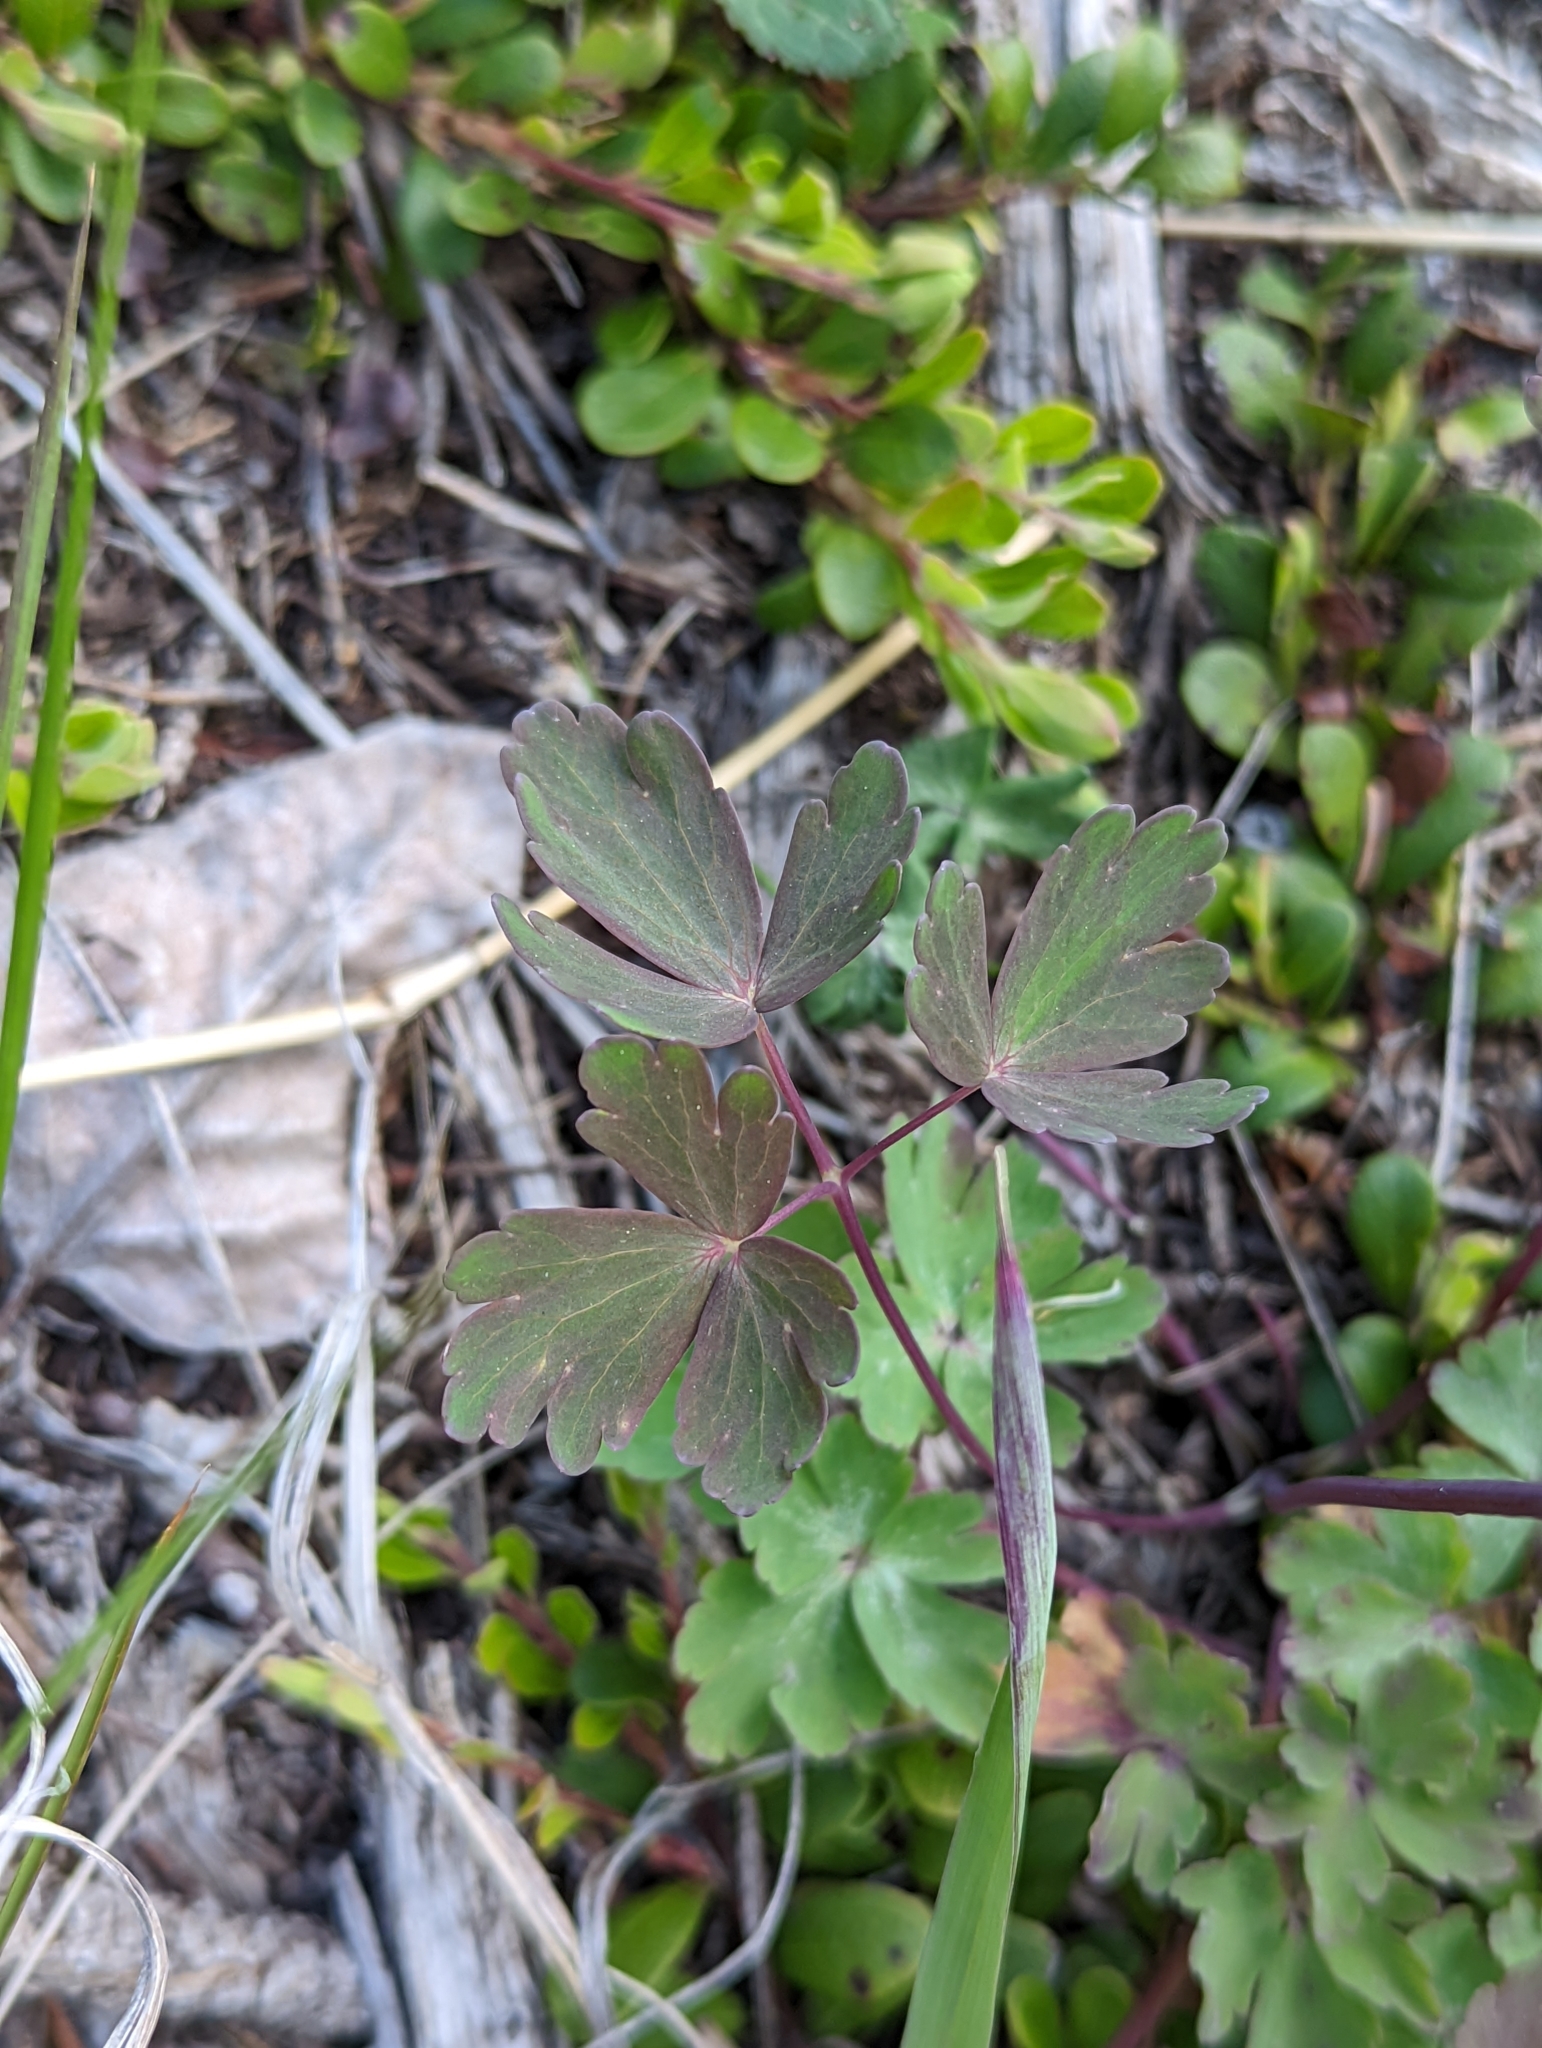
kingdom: Plantae
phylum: Tracheophyta
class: Magnoliopsida
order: Ranunculales
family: Ranunculaceae
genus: Aquilegia
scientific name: Aquilegia brevistyla
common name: Yukon columbine
